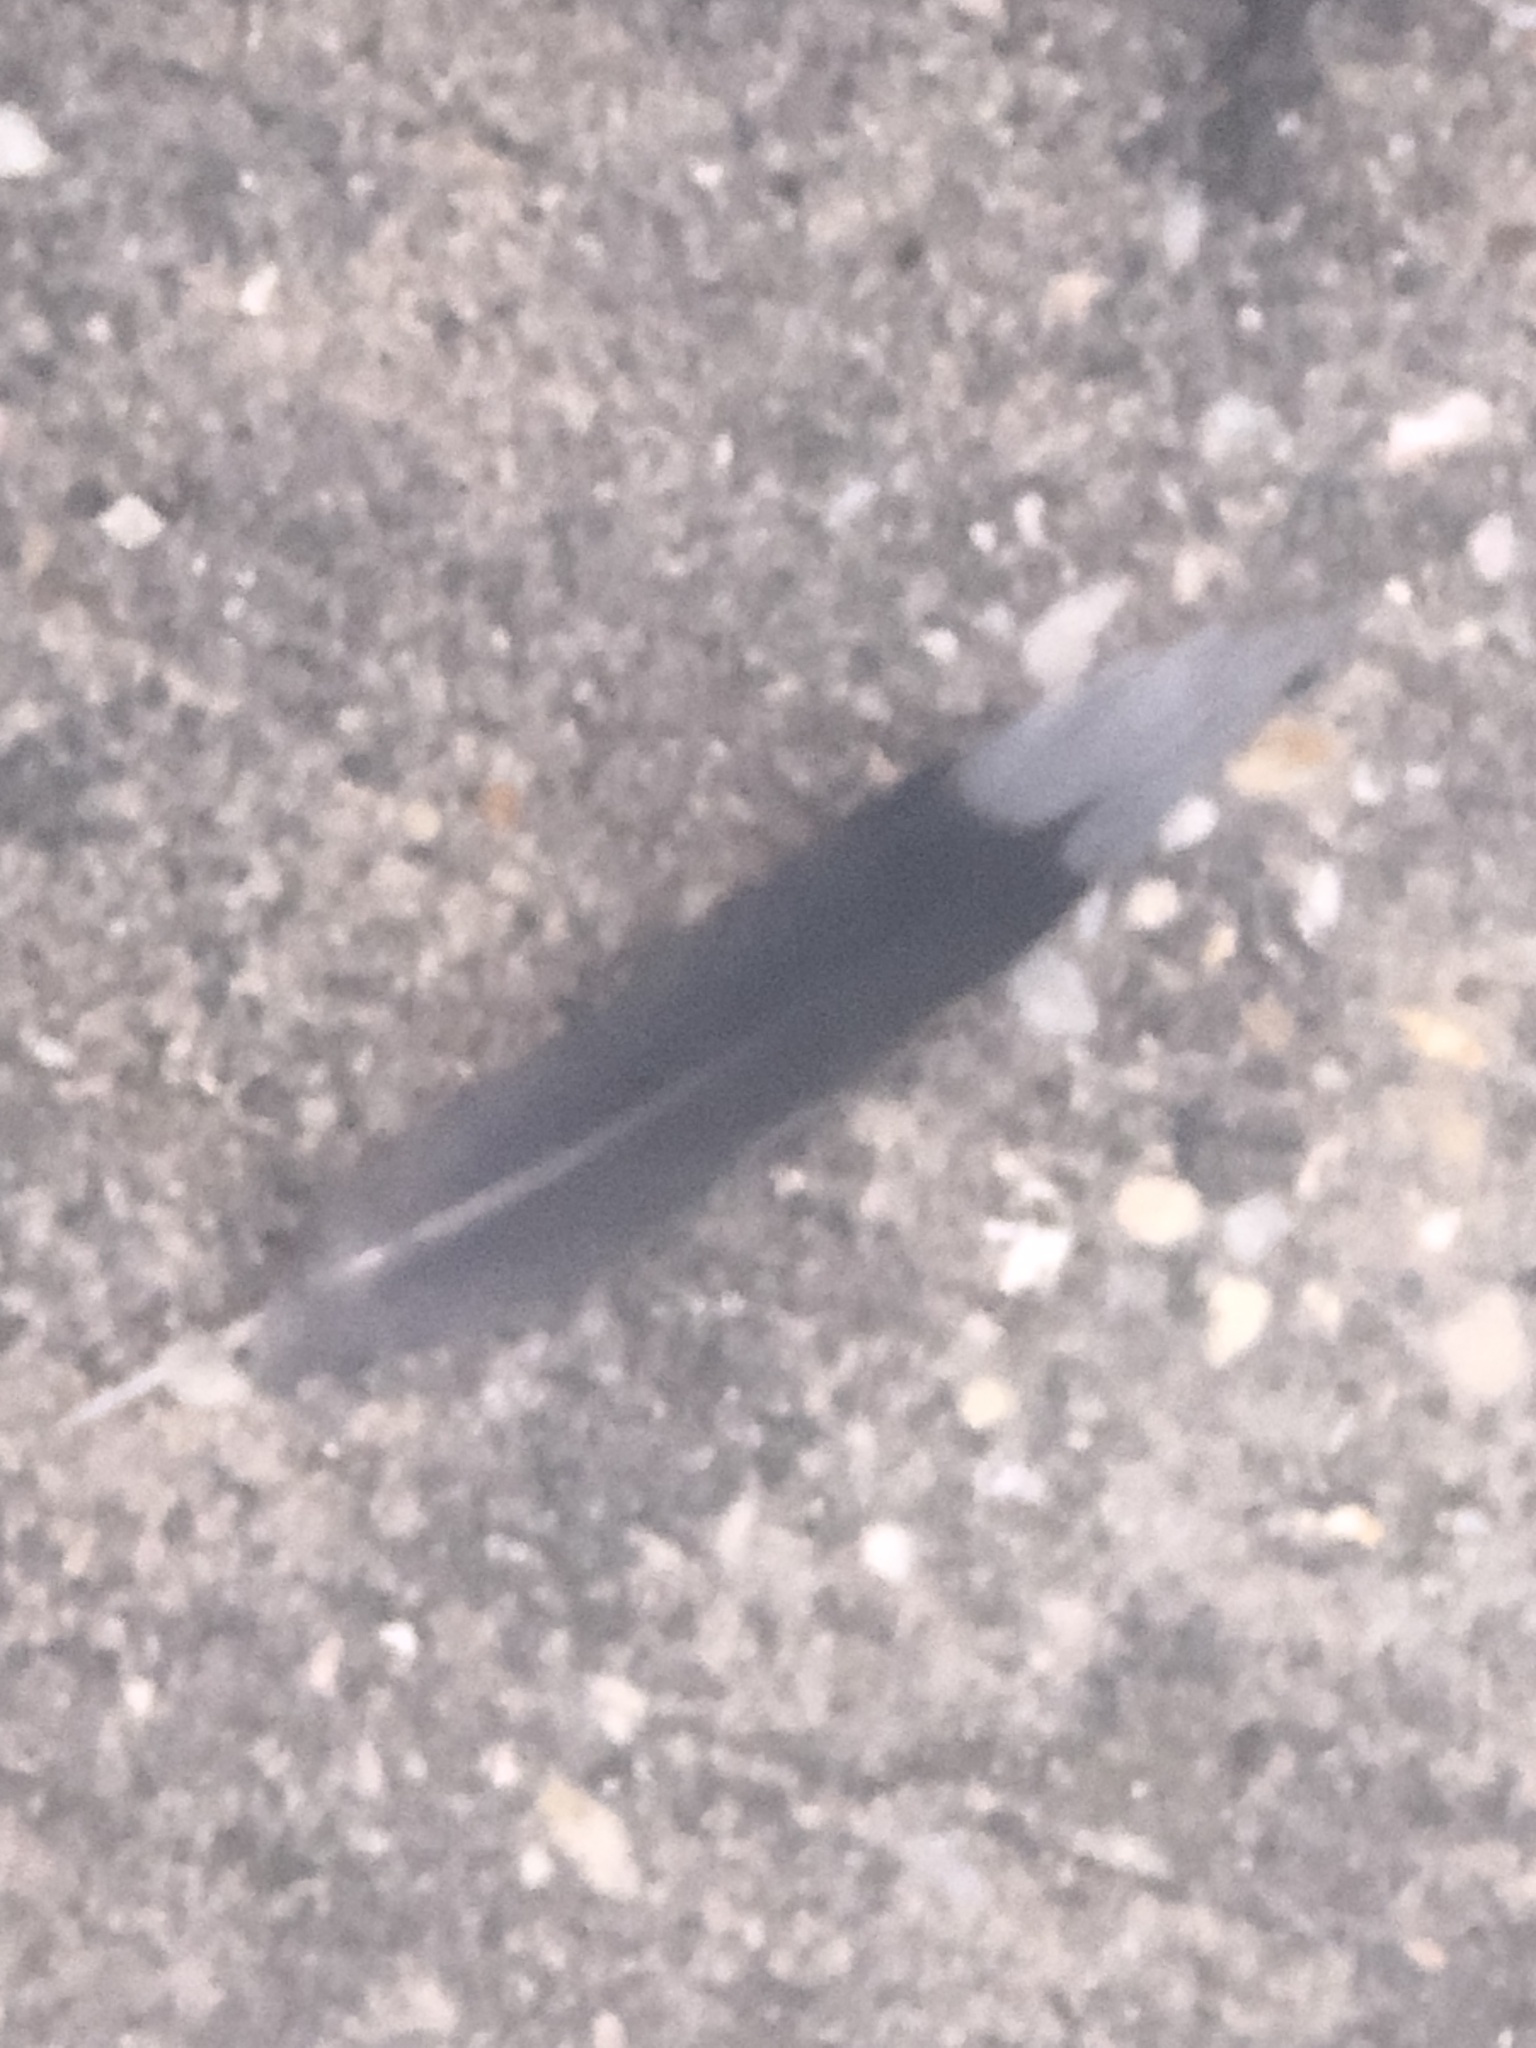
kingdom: Animalia
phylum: Chordata
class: Aves
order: Columbiformes
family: Columbidae
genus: Zenaida
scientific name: Zenaida macroura
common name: Mourning dove
